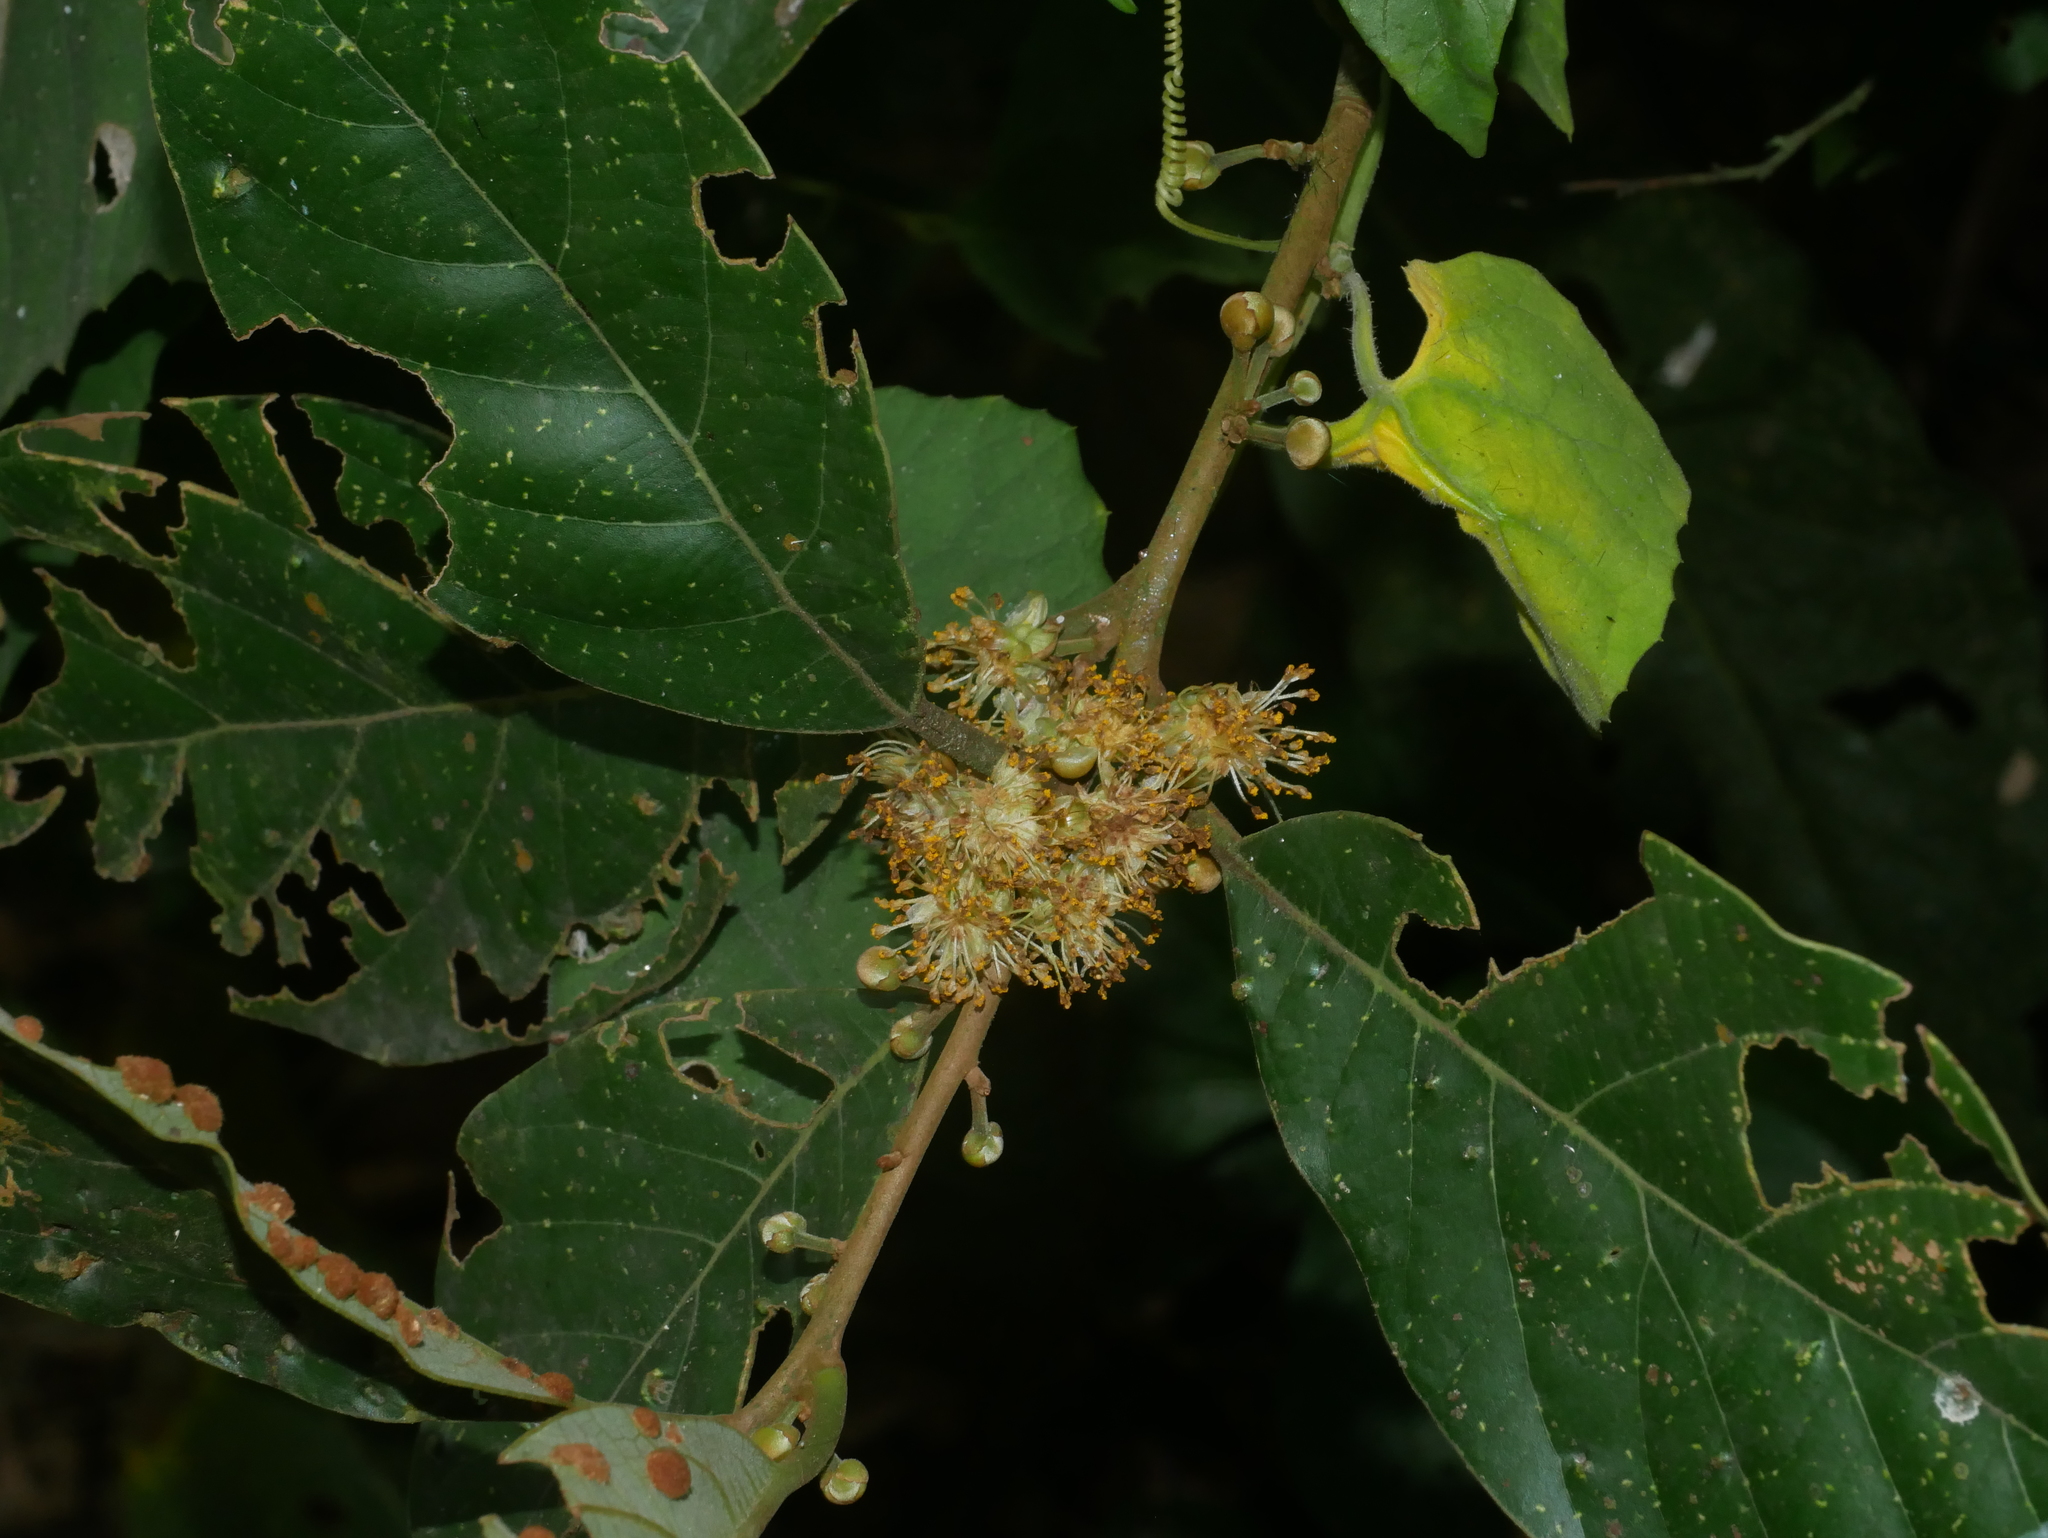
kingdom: Plantae
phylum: Tracheophyta
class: Magnoliopsida
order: Laurales
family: Lauraceae
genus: Litsea
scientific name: Litsea akoensis
